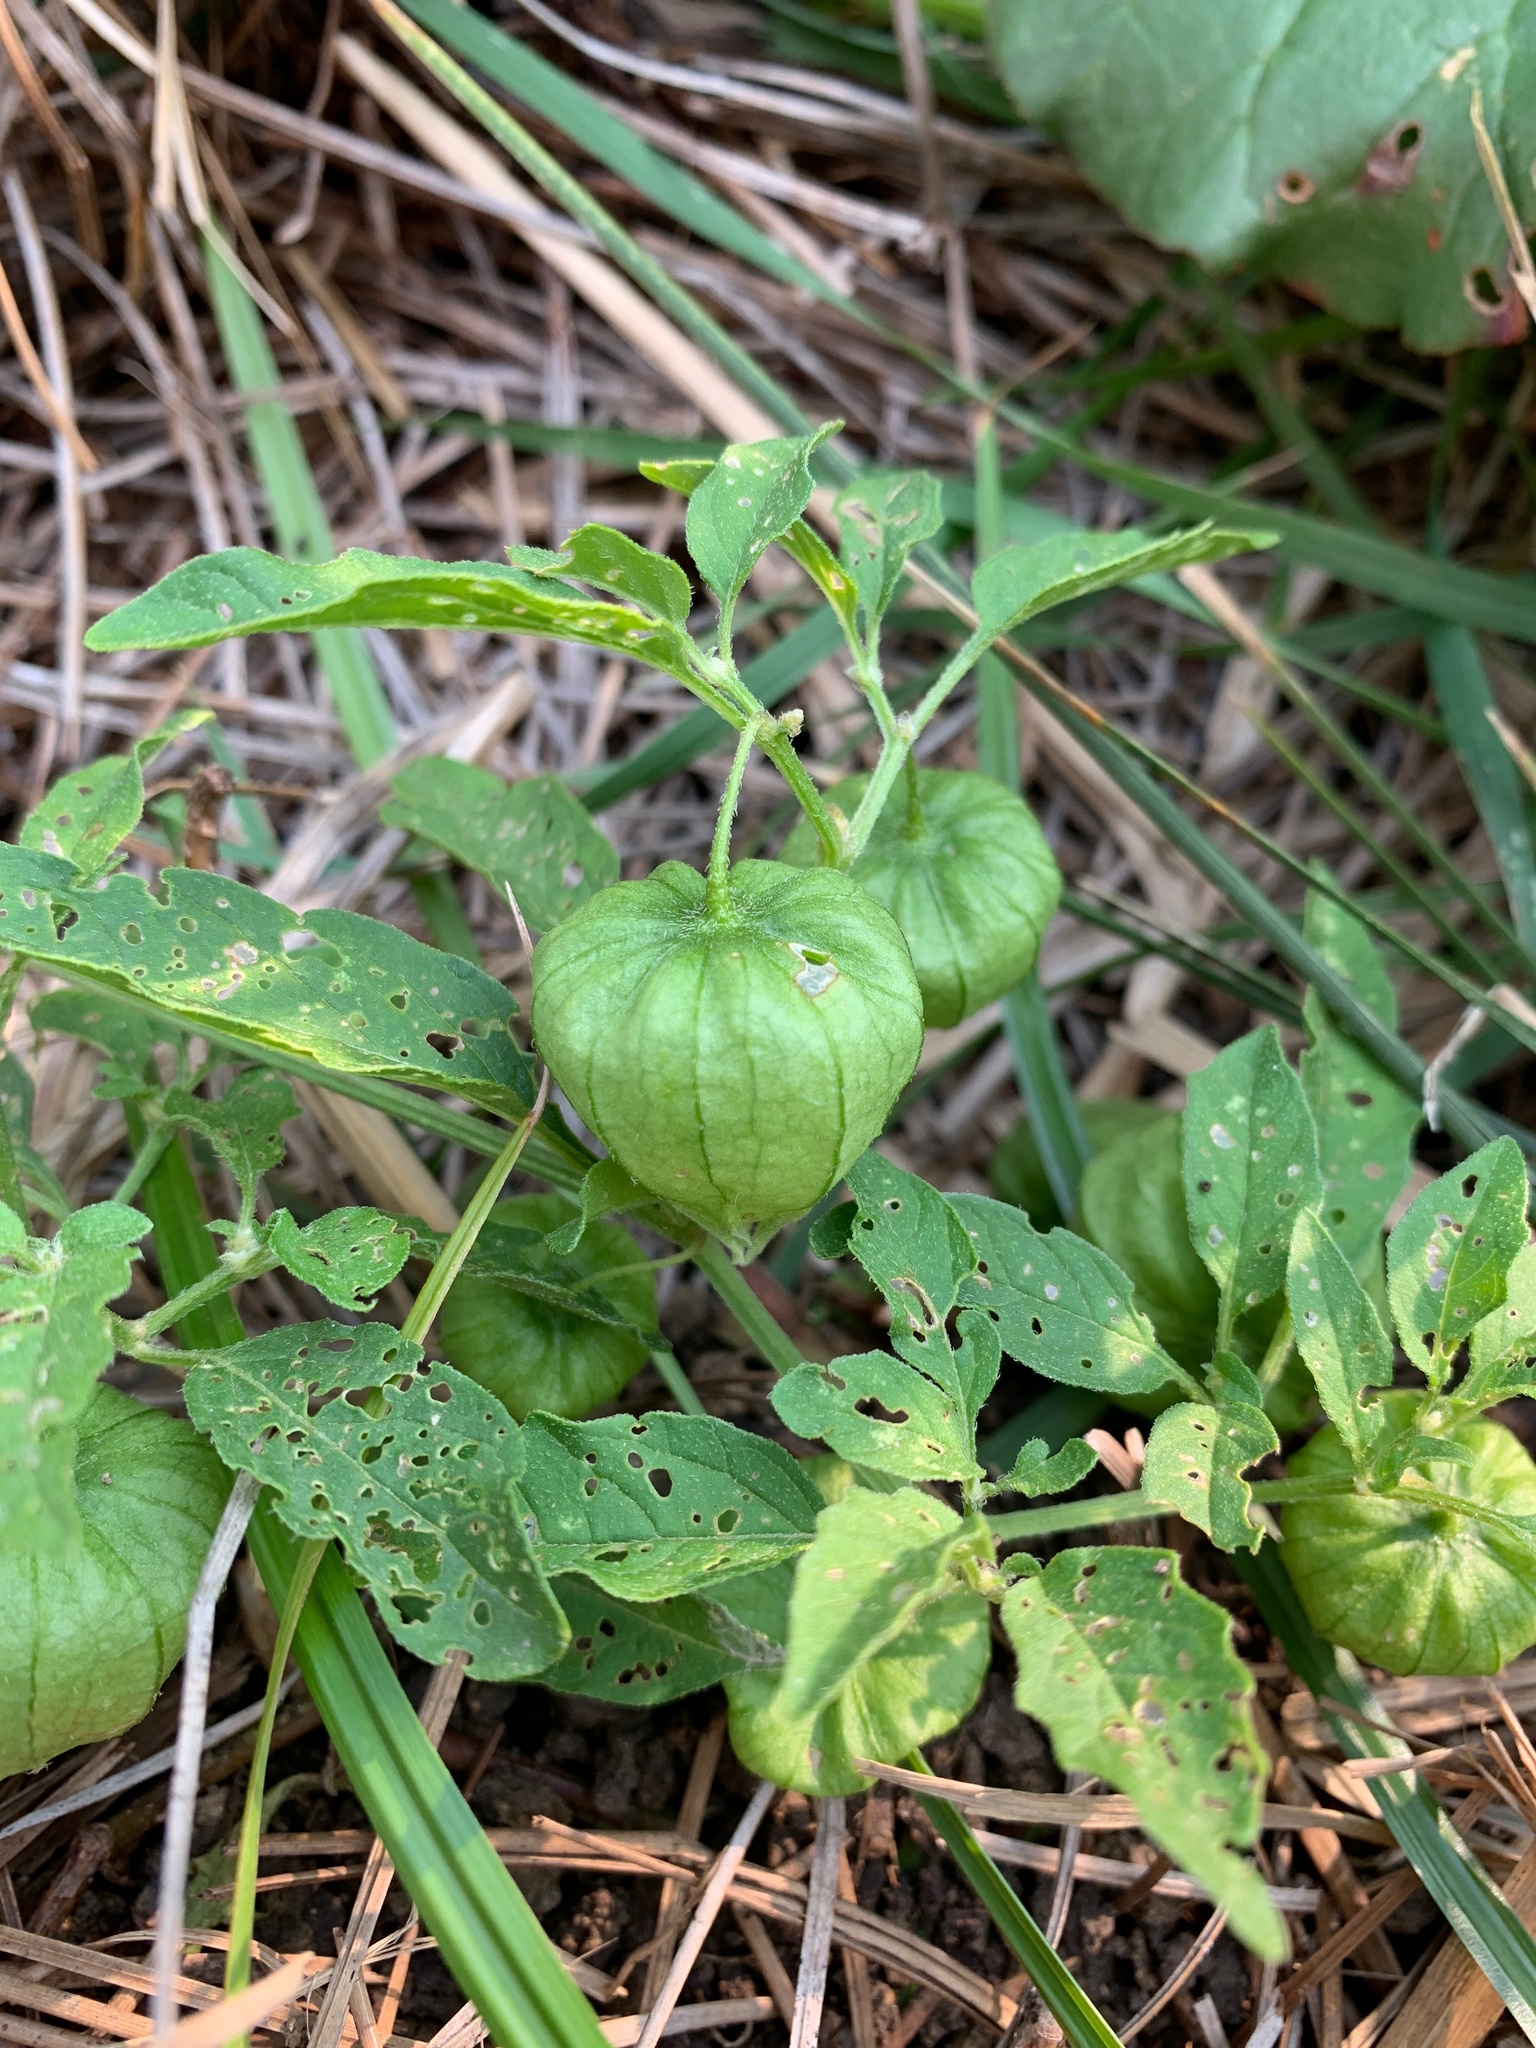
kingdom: Plantae
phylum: Tracheophyta
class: Magnoliopsida
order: Solanales
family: Solanaceae
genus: Physalis
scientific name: Physalis longifolia
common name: Common ground-cherry
